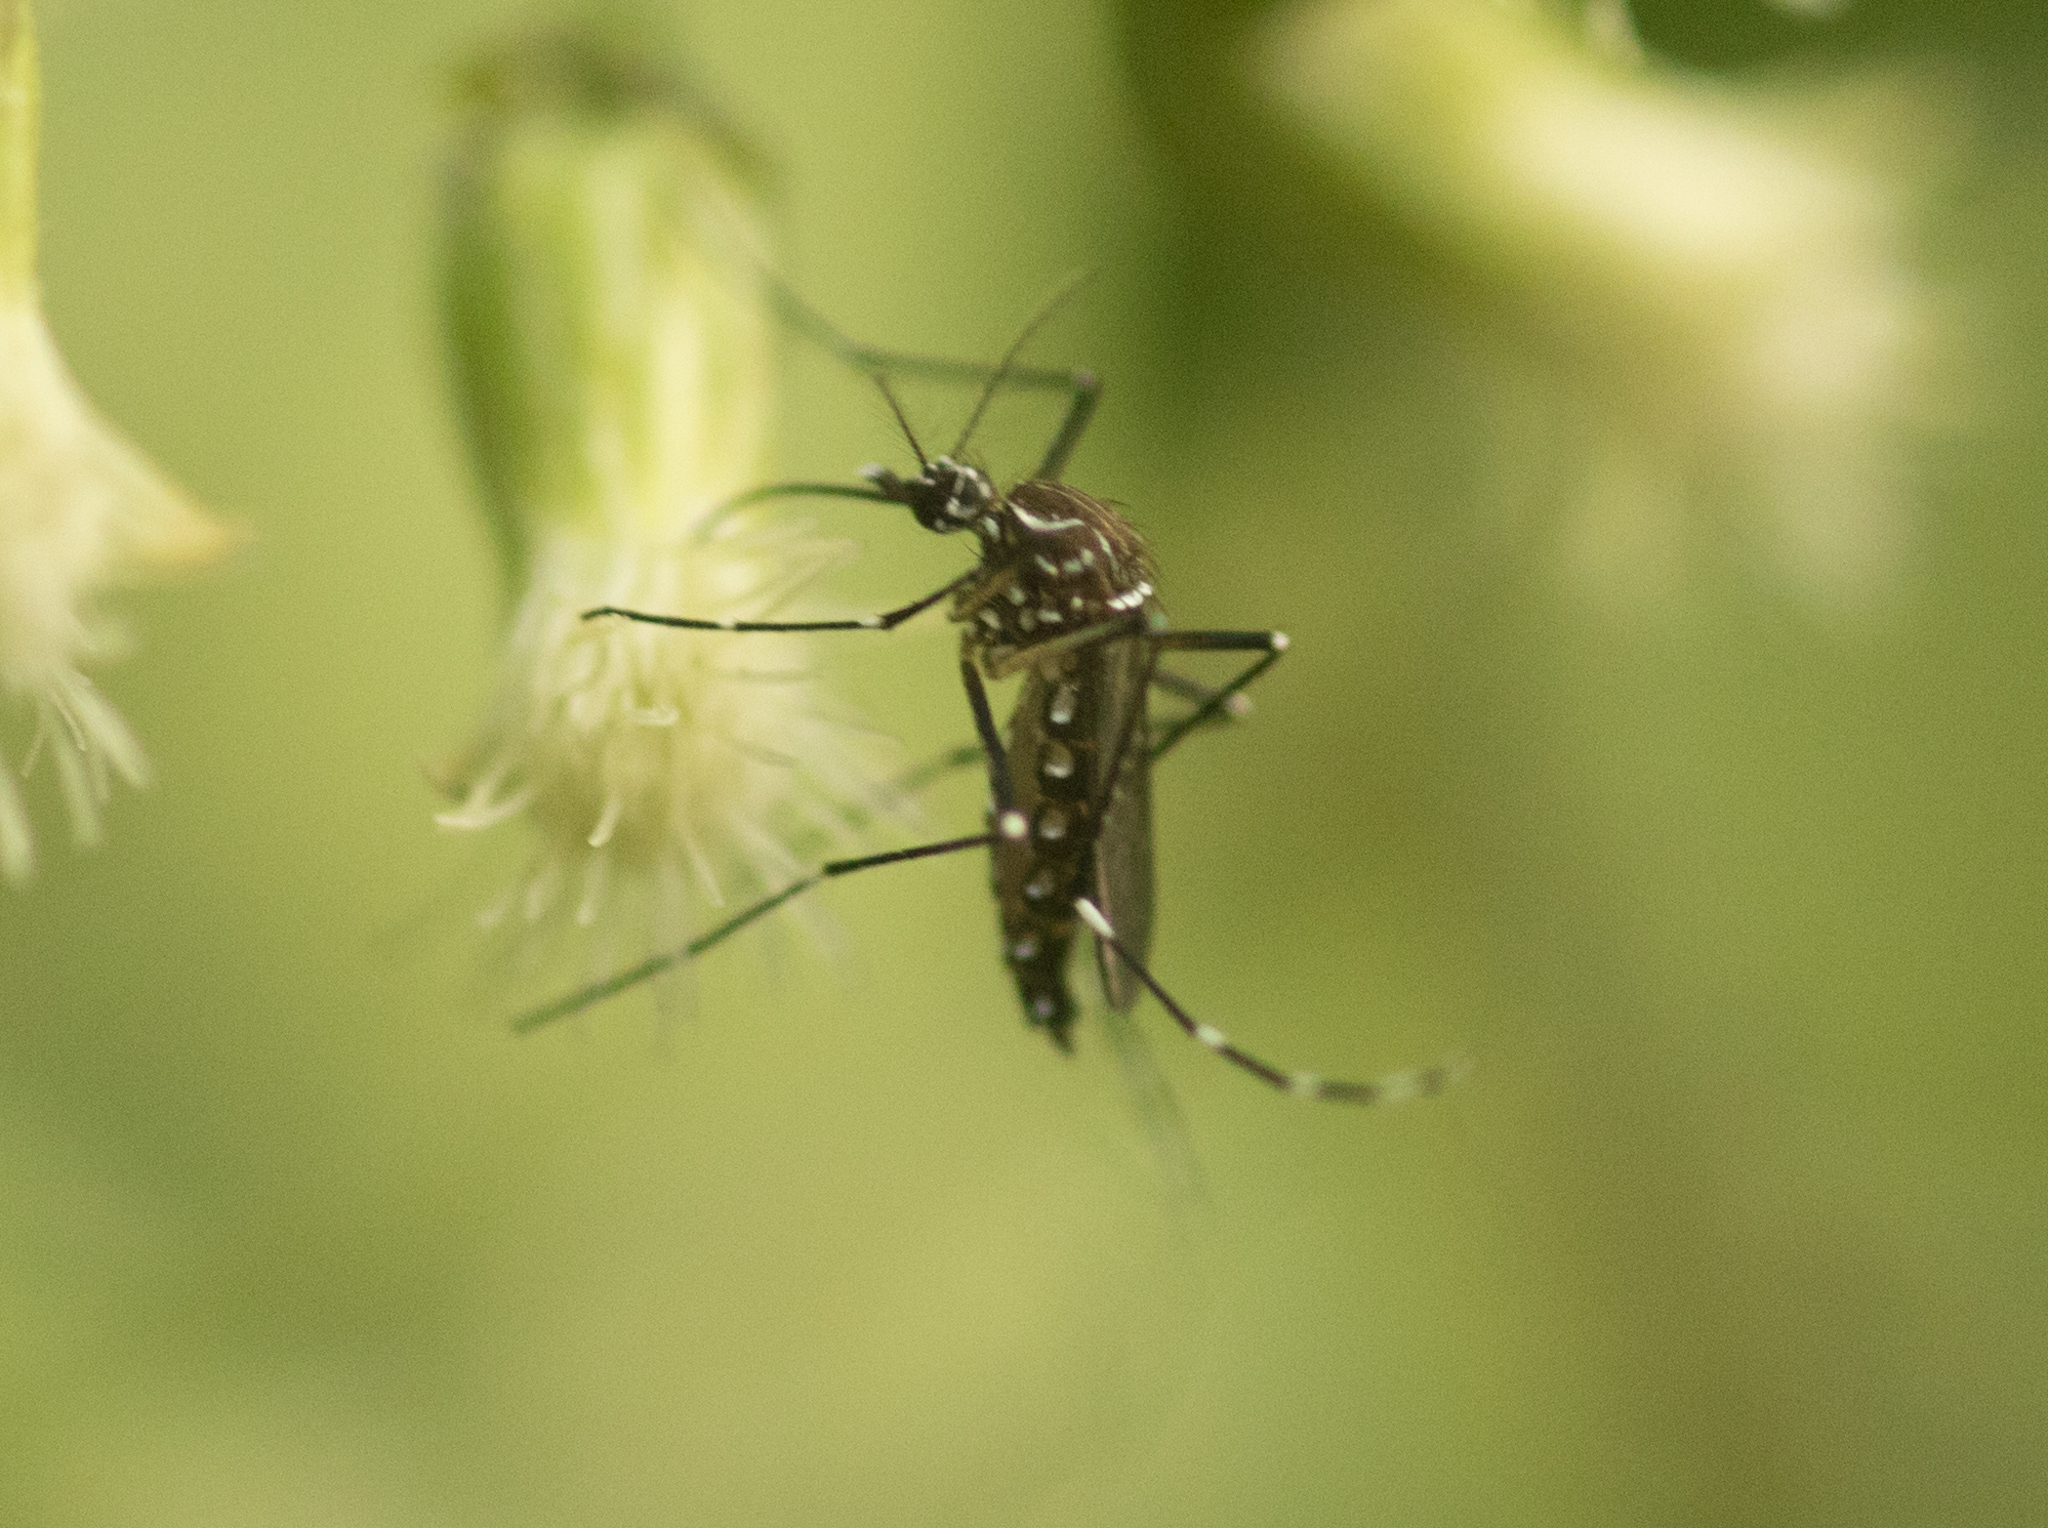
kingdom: Animalia
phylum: Arthropoda
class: Insecta
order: Diptera
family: Culicidae
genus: Aedes
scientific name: Aedes aegypti
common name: Yellow fever mosquito
